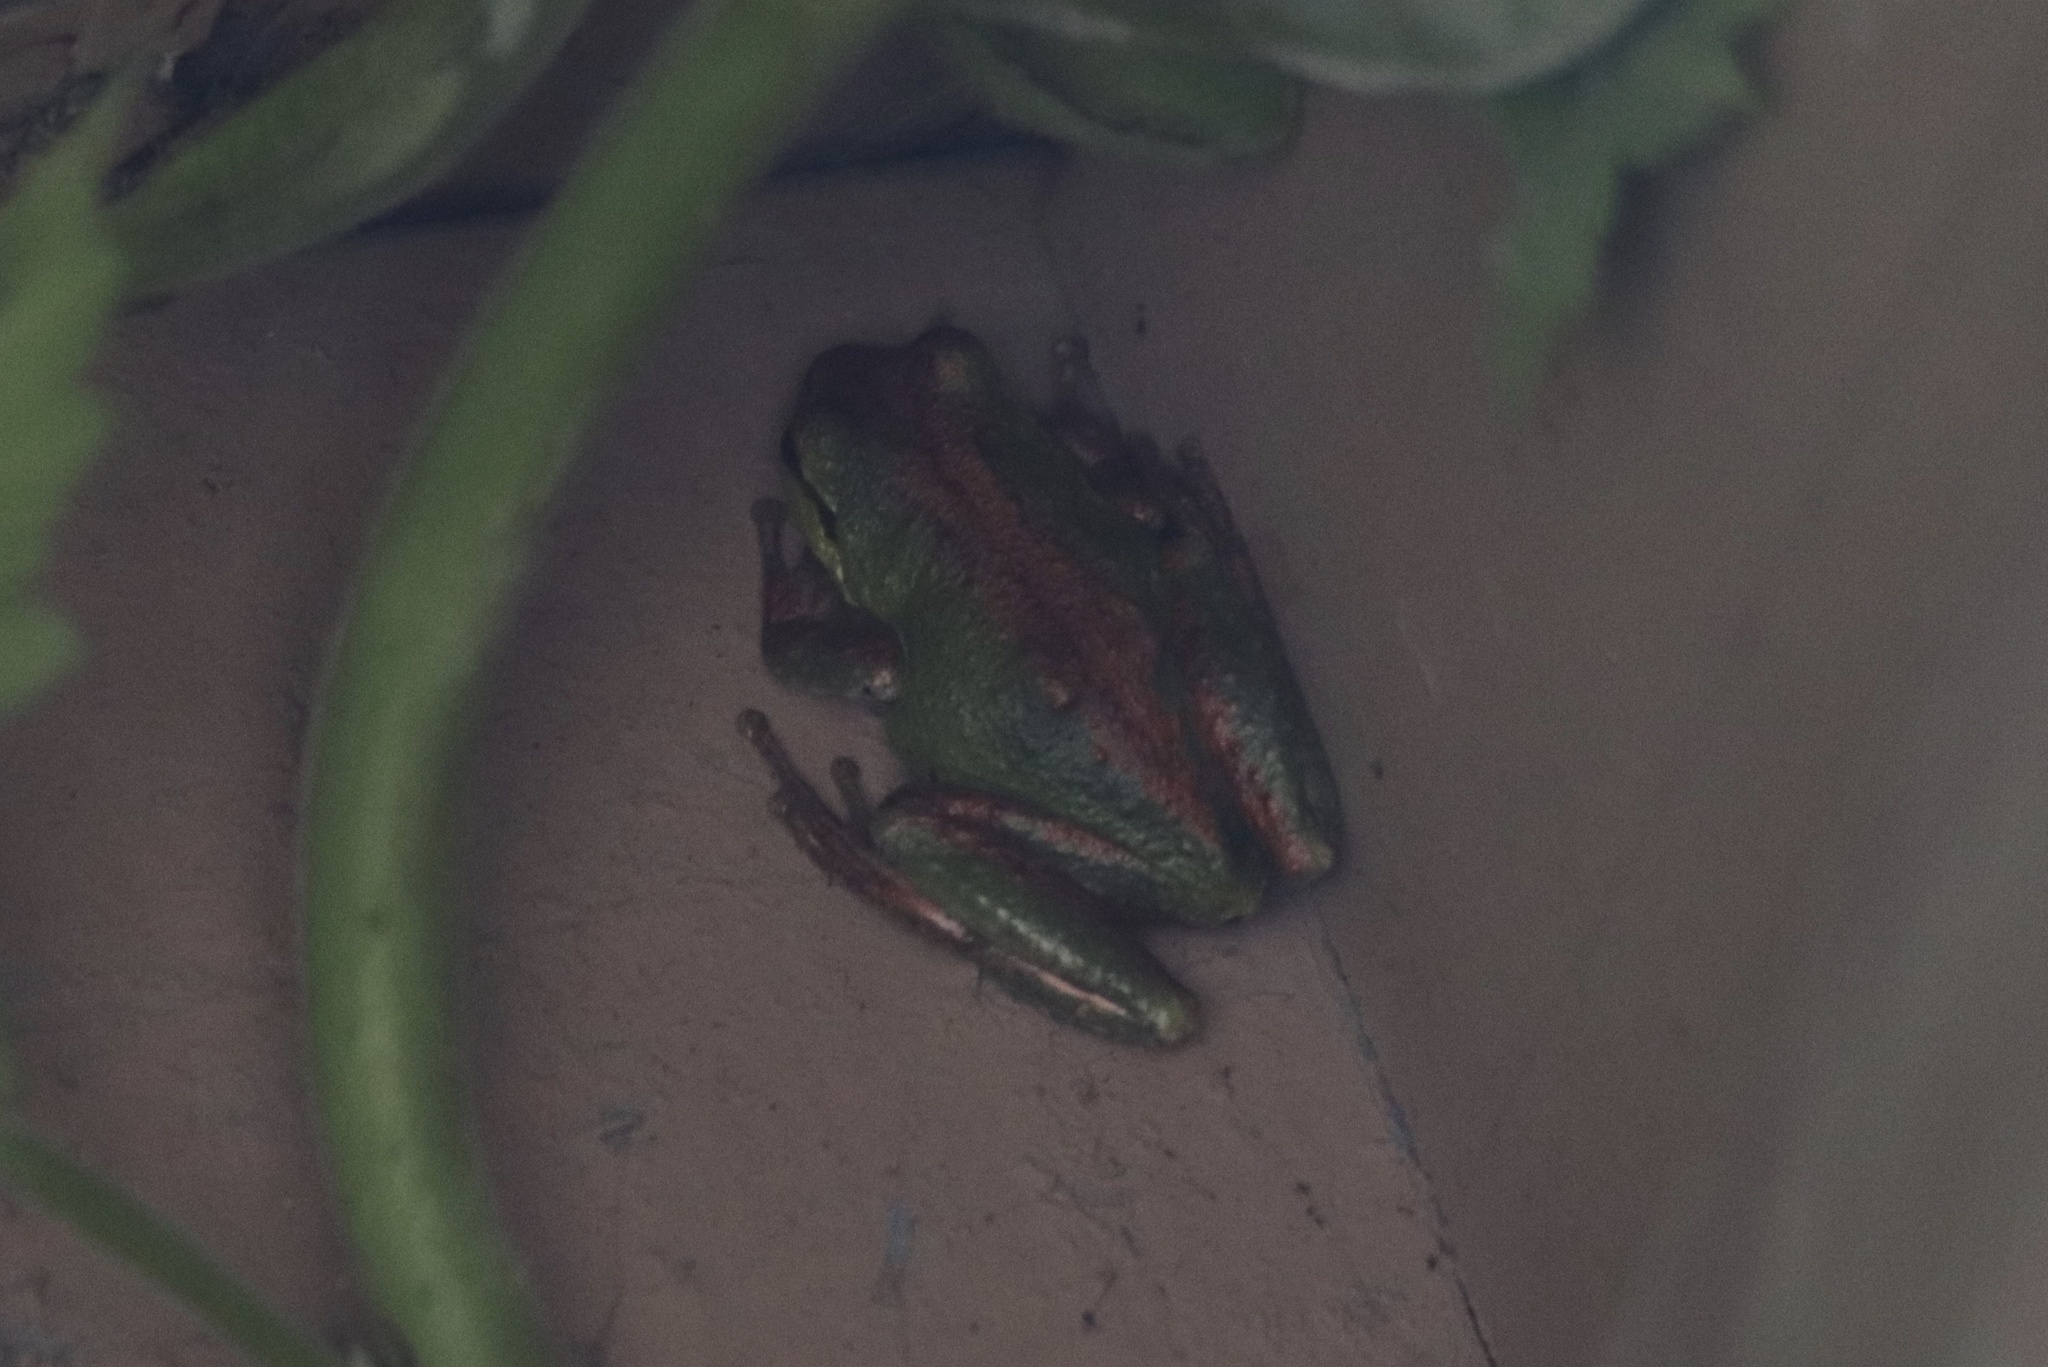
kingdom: Animalia
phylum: Chordata
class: Amphibia
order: Anura
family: Hylidae
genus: Pseudacris
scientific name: Pseudacris regilla
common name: Pacific chorus frog
